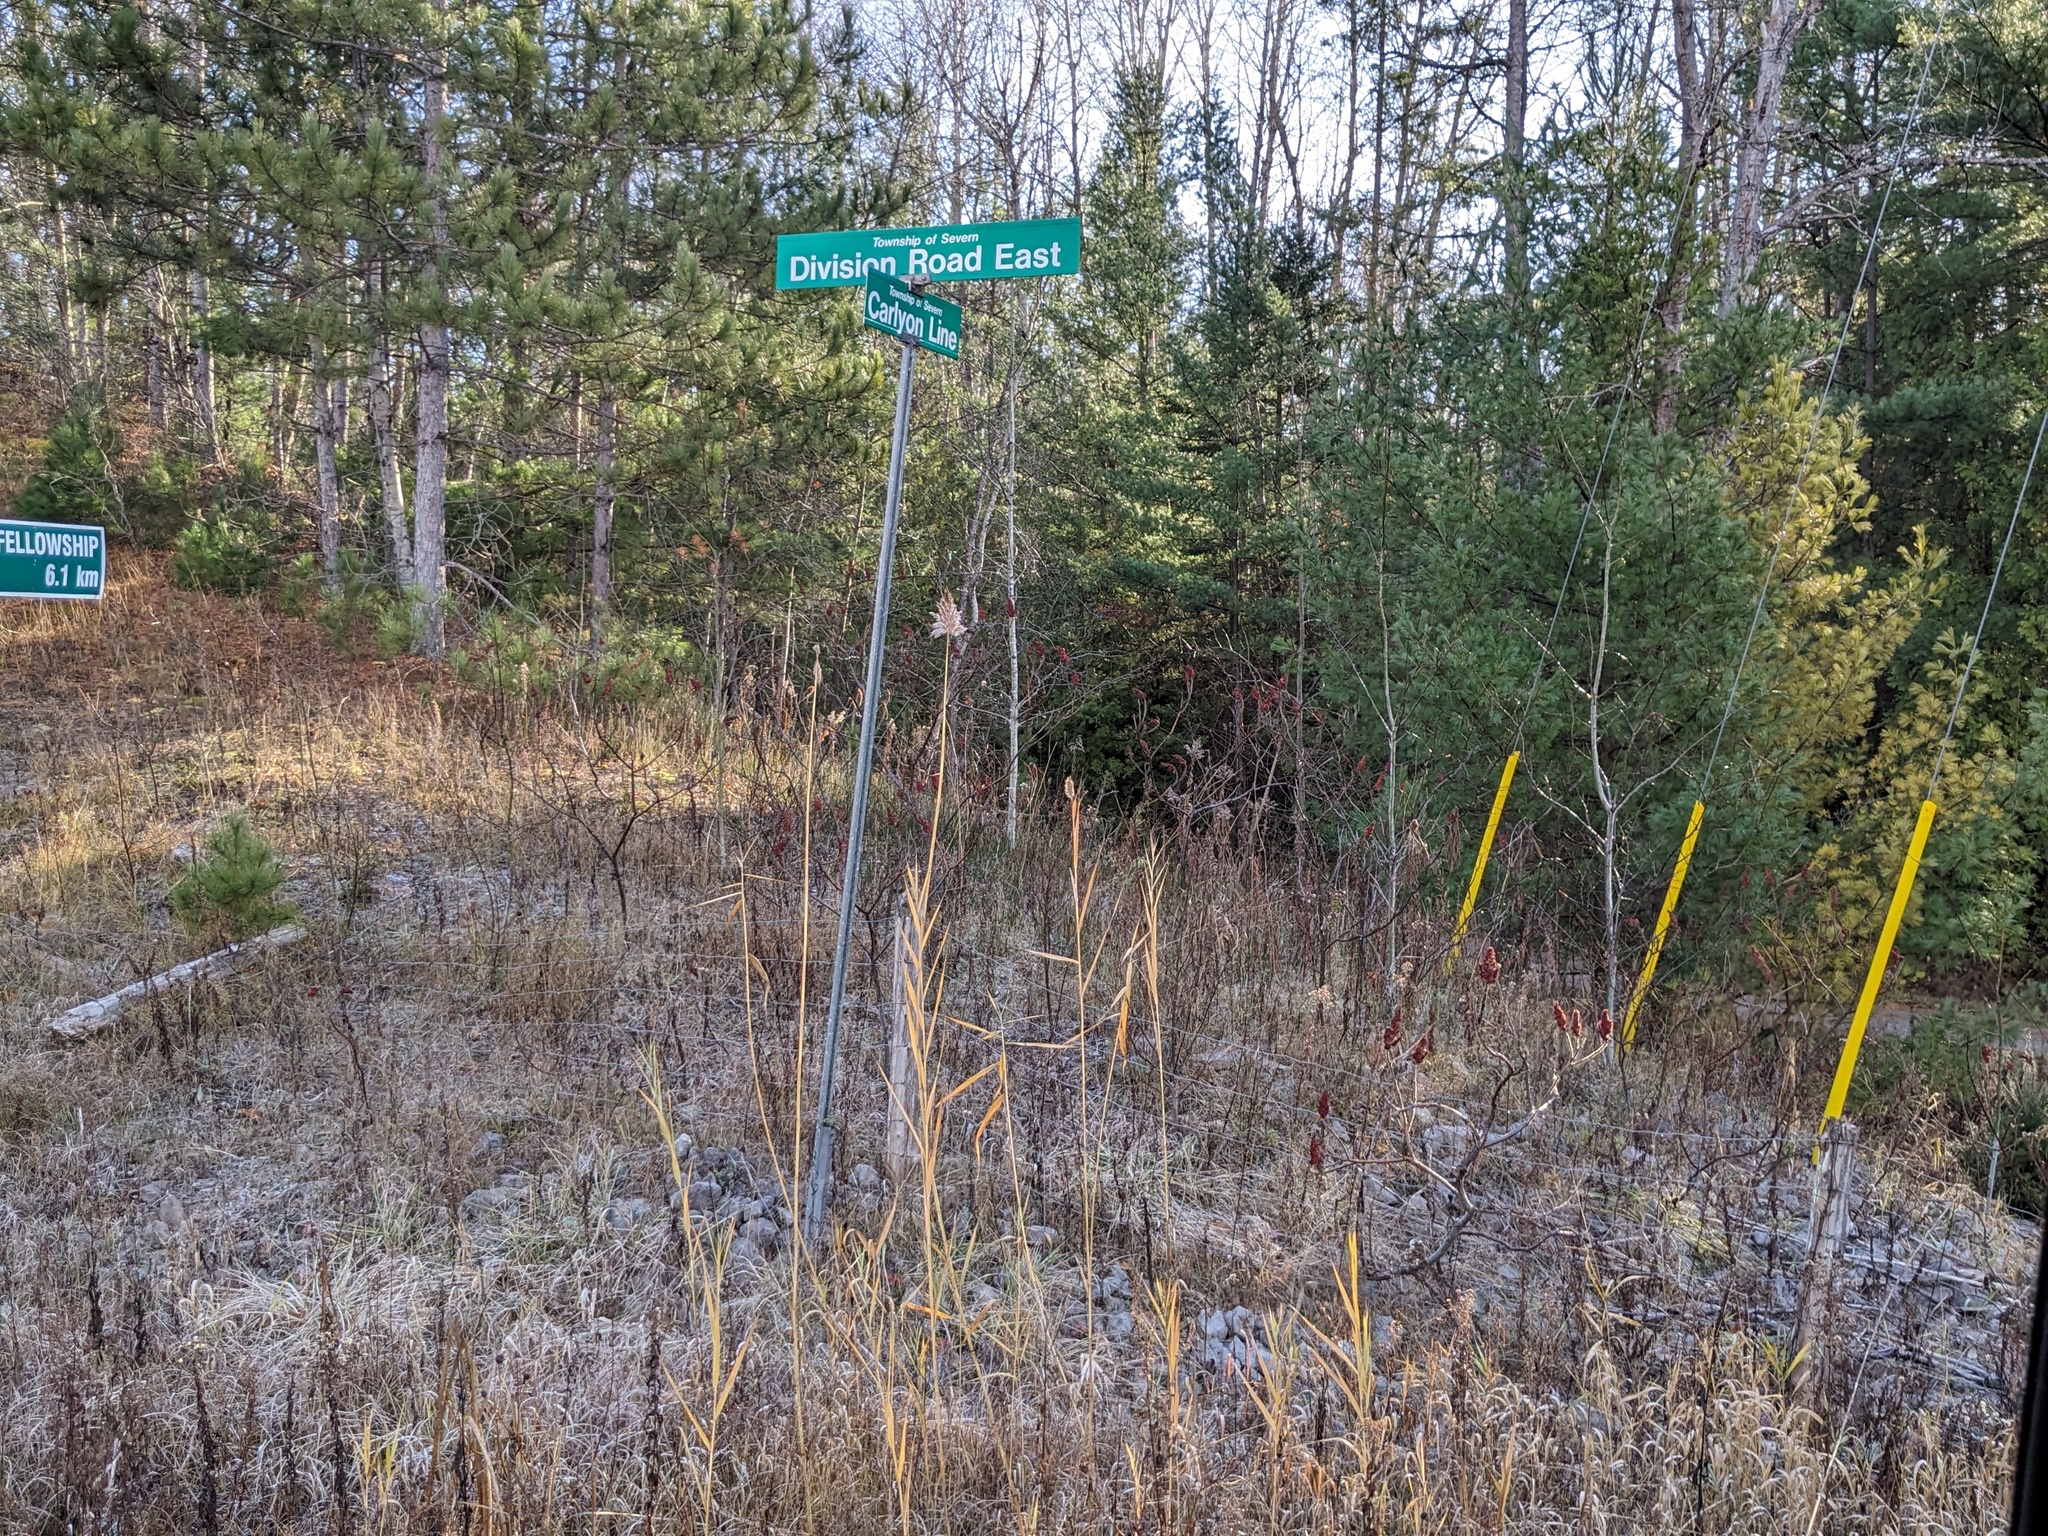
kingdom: Plantae
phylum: Tracheophyta
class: Liliopsida
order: Poales
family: Poaceae
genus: Phragmites
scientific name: Phragmites australis
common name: Common reed
